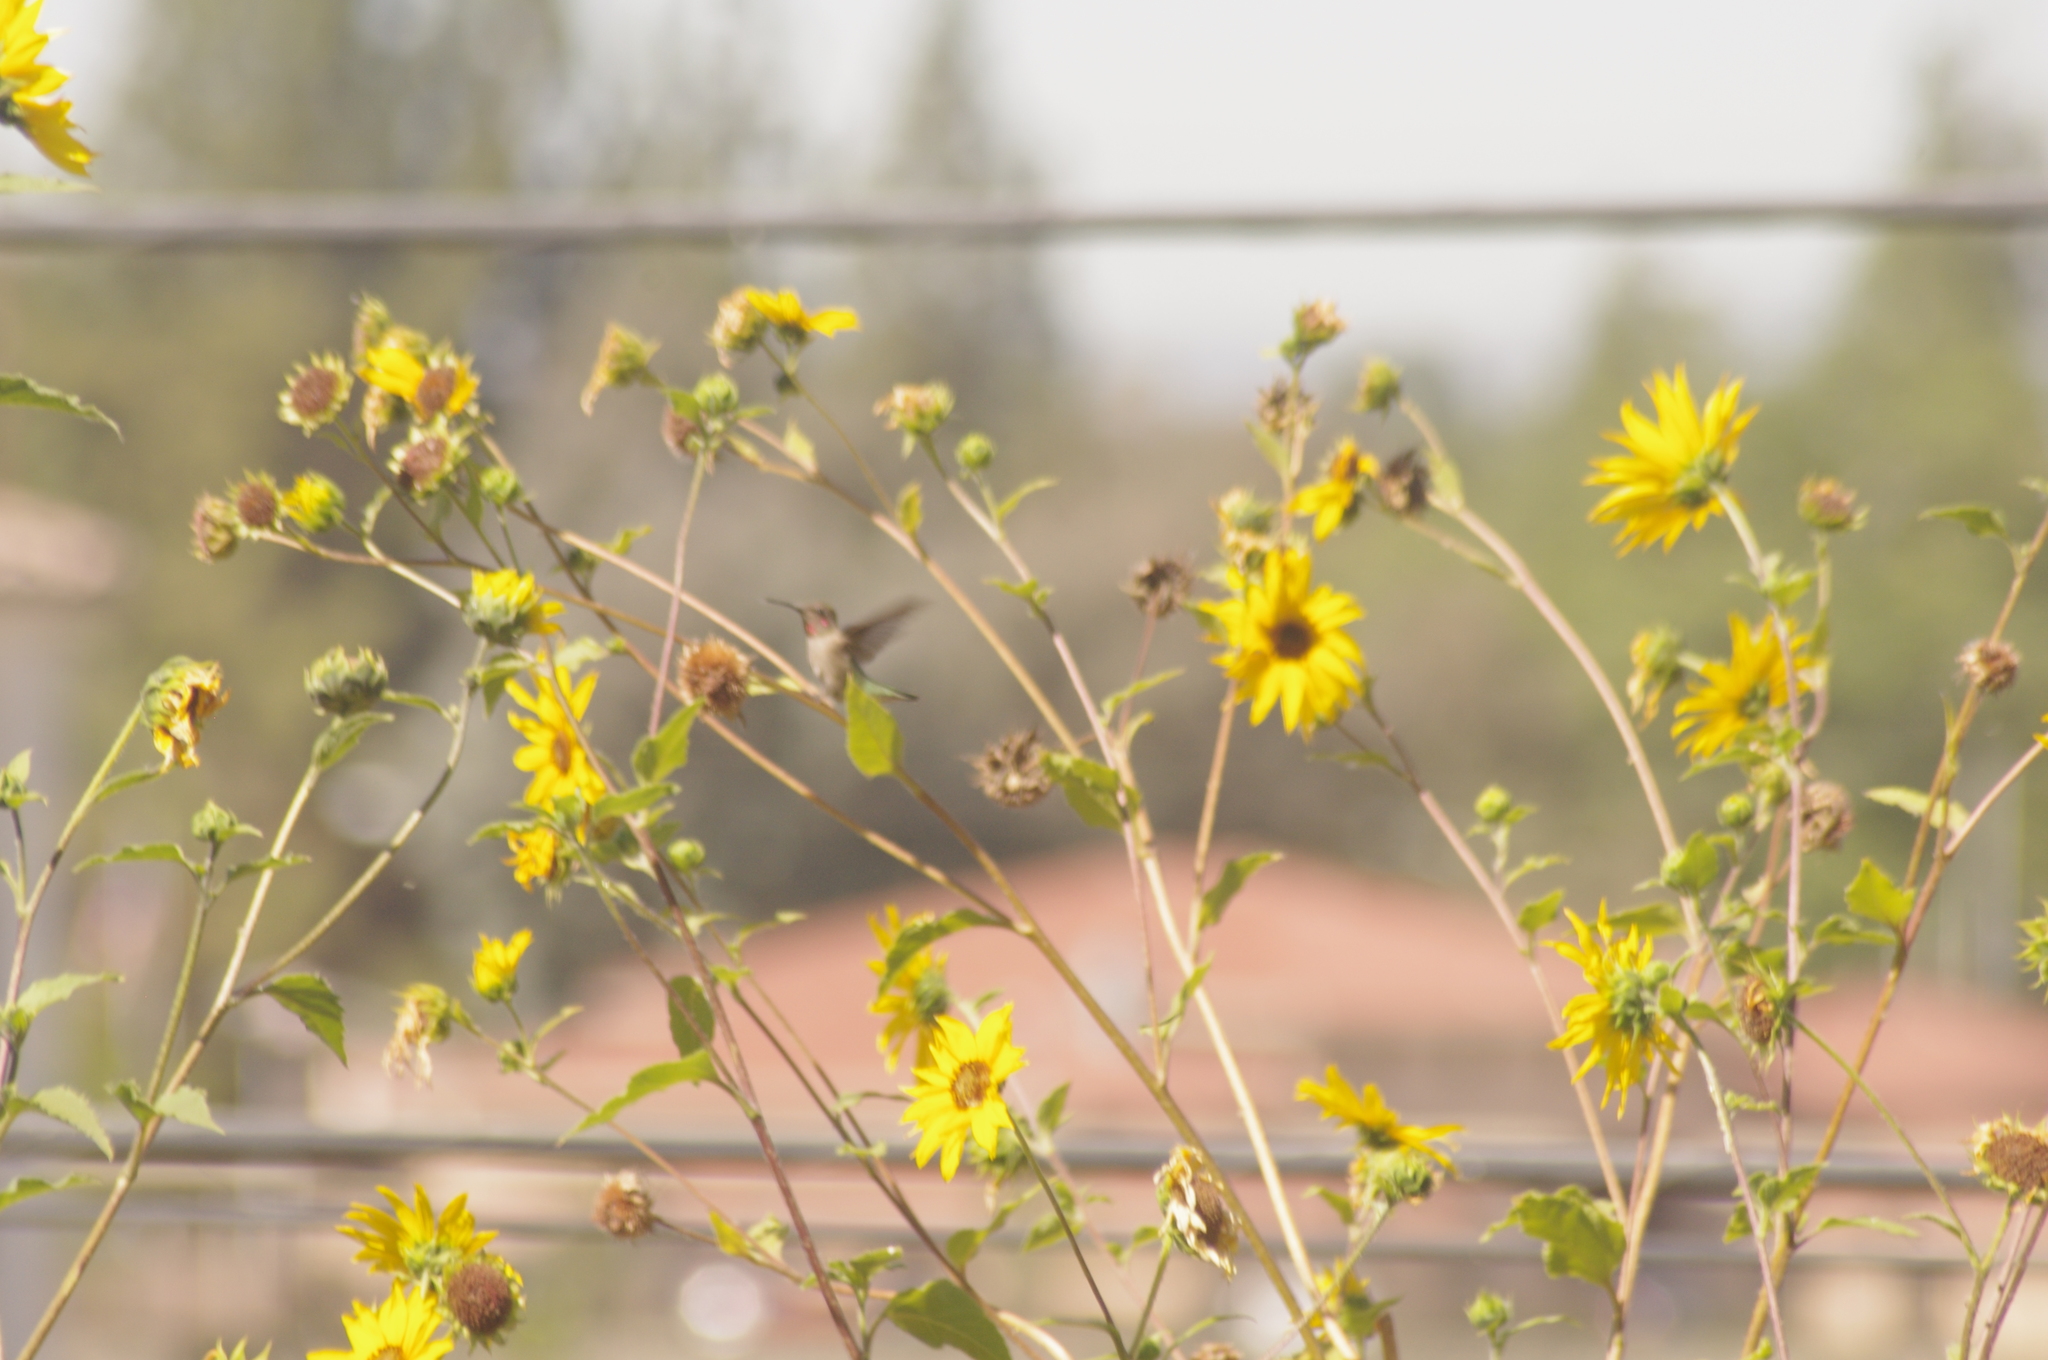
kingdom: Animalia
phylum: Chordata
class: Aves
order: Apodiformes
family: Trochilidae
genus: Calypte
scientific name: Calypte anna
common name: Anna's hummingbird
